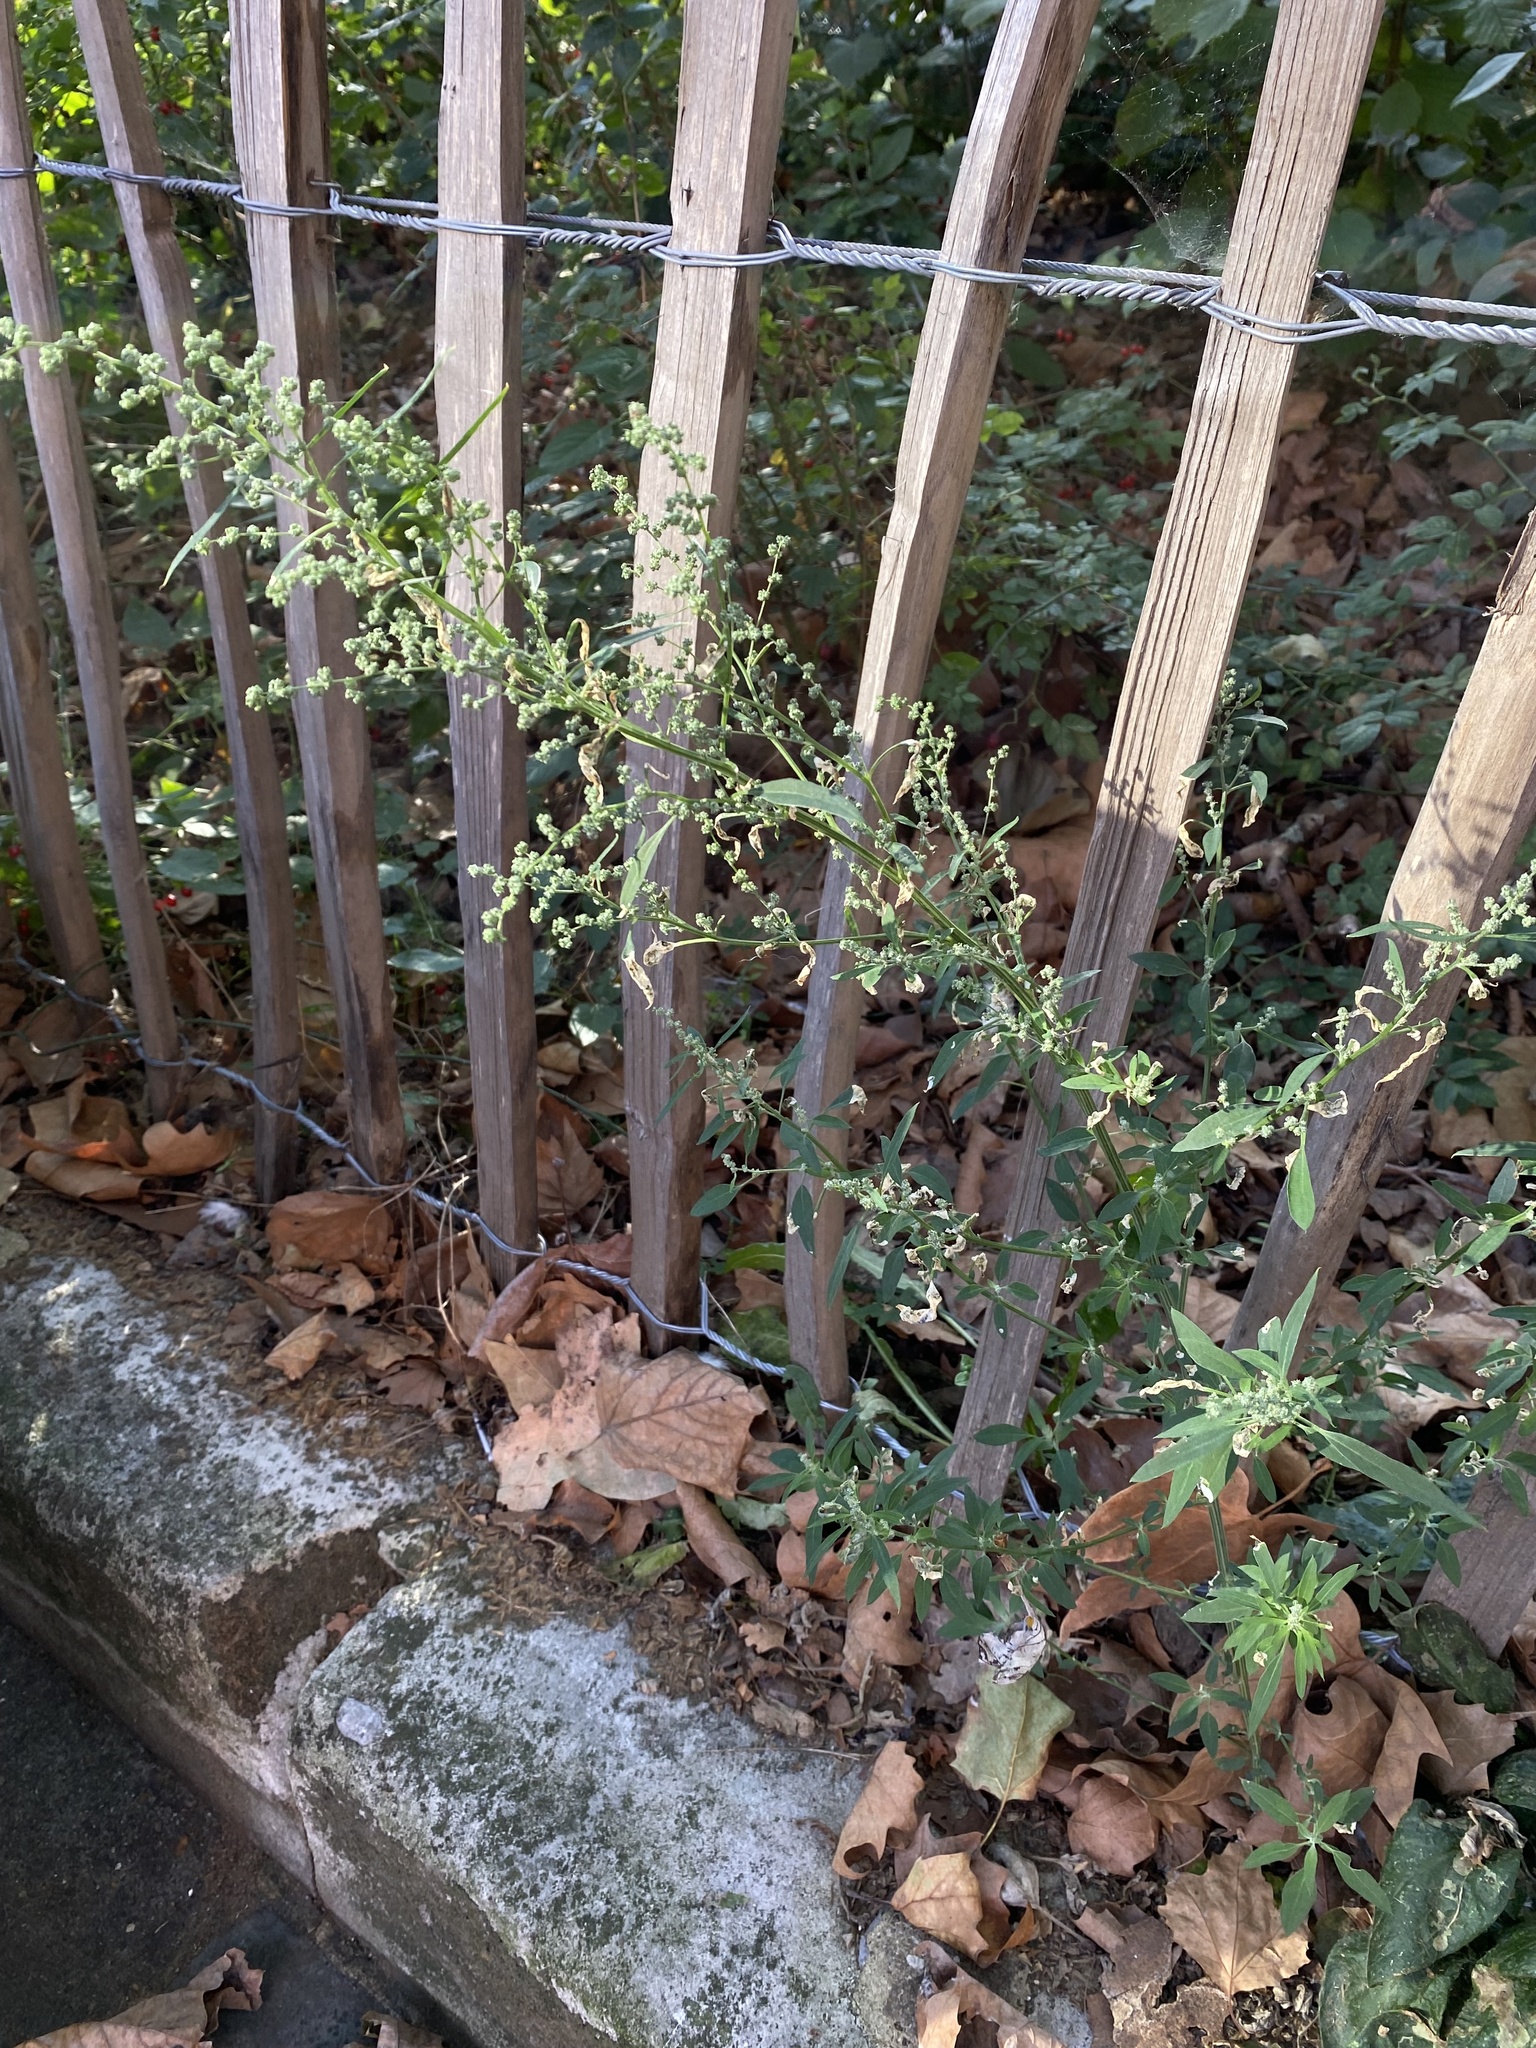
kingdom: Plantae
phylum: Tracheophyta
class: Magnoliopsida
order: Caryophyllales
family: Amaranthaceae
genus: Chenopodium
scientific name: Chenopodium album
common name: Fat-hen
